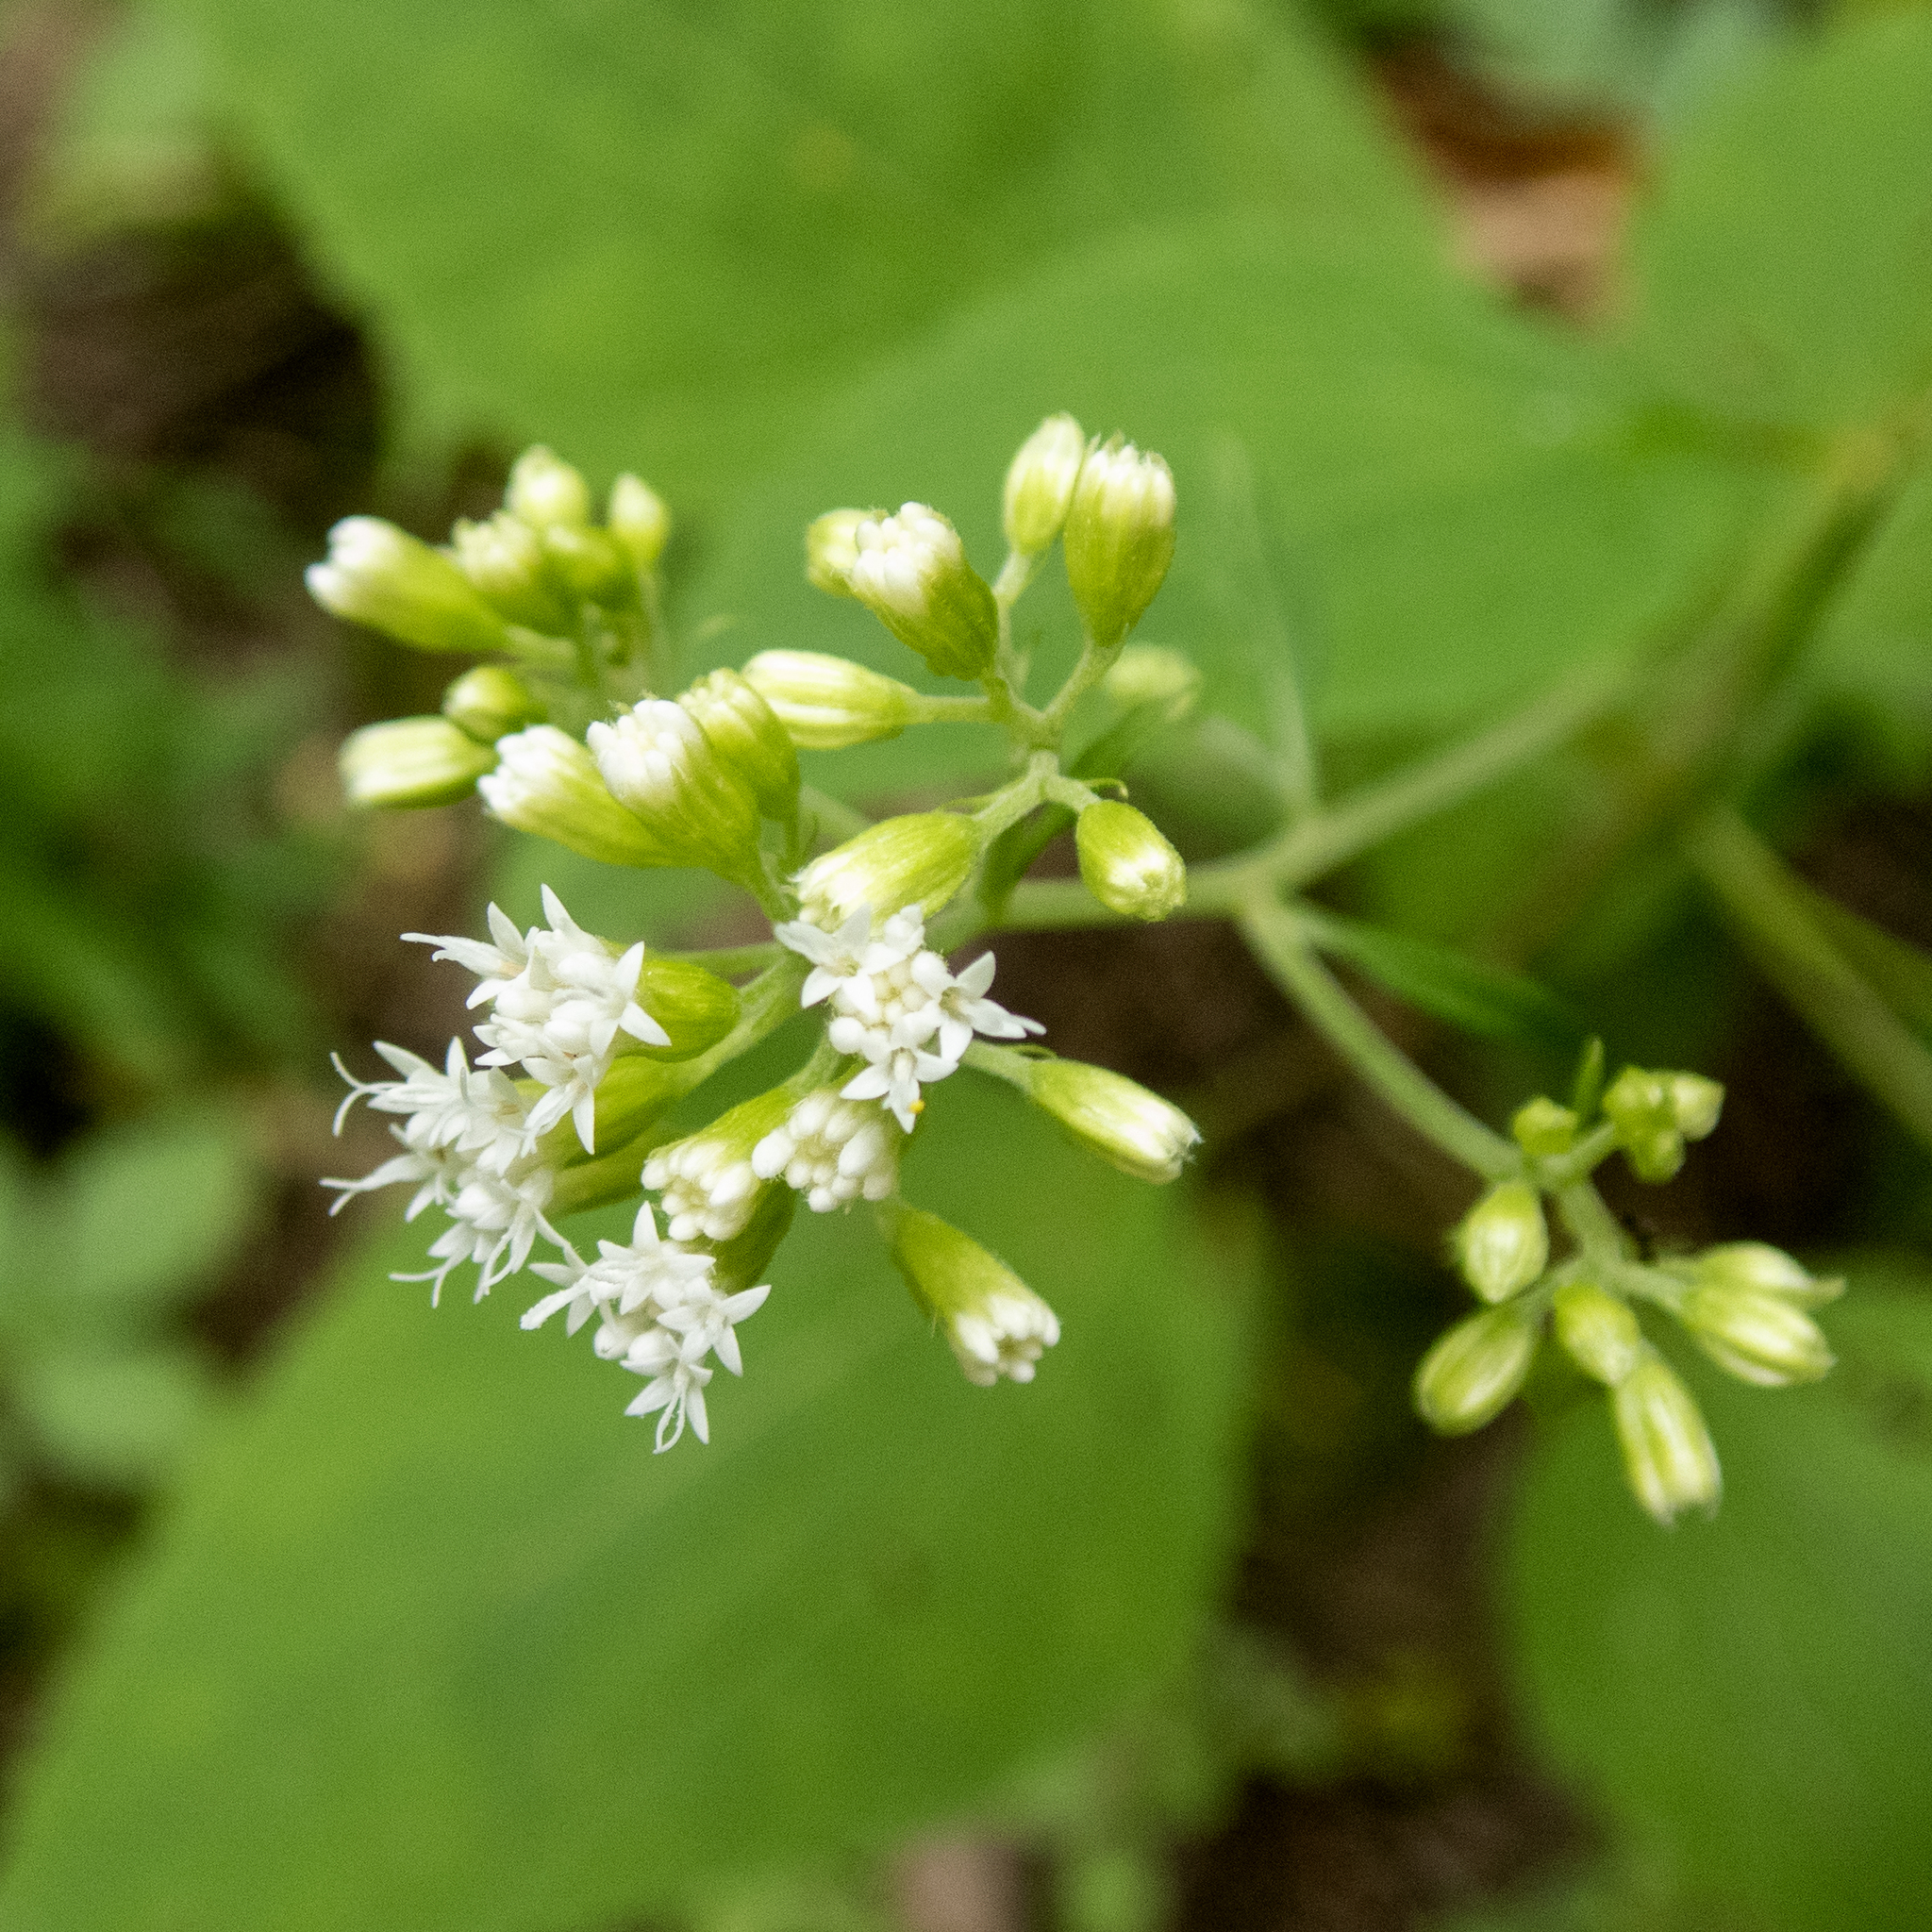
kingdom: Plantae
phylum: Tracheophyta
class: Magnoliopsida
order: Asterales
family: Asteraceae
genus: Ageratina
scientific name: Ageratina altissima
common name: White snakeroot
